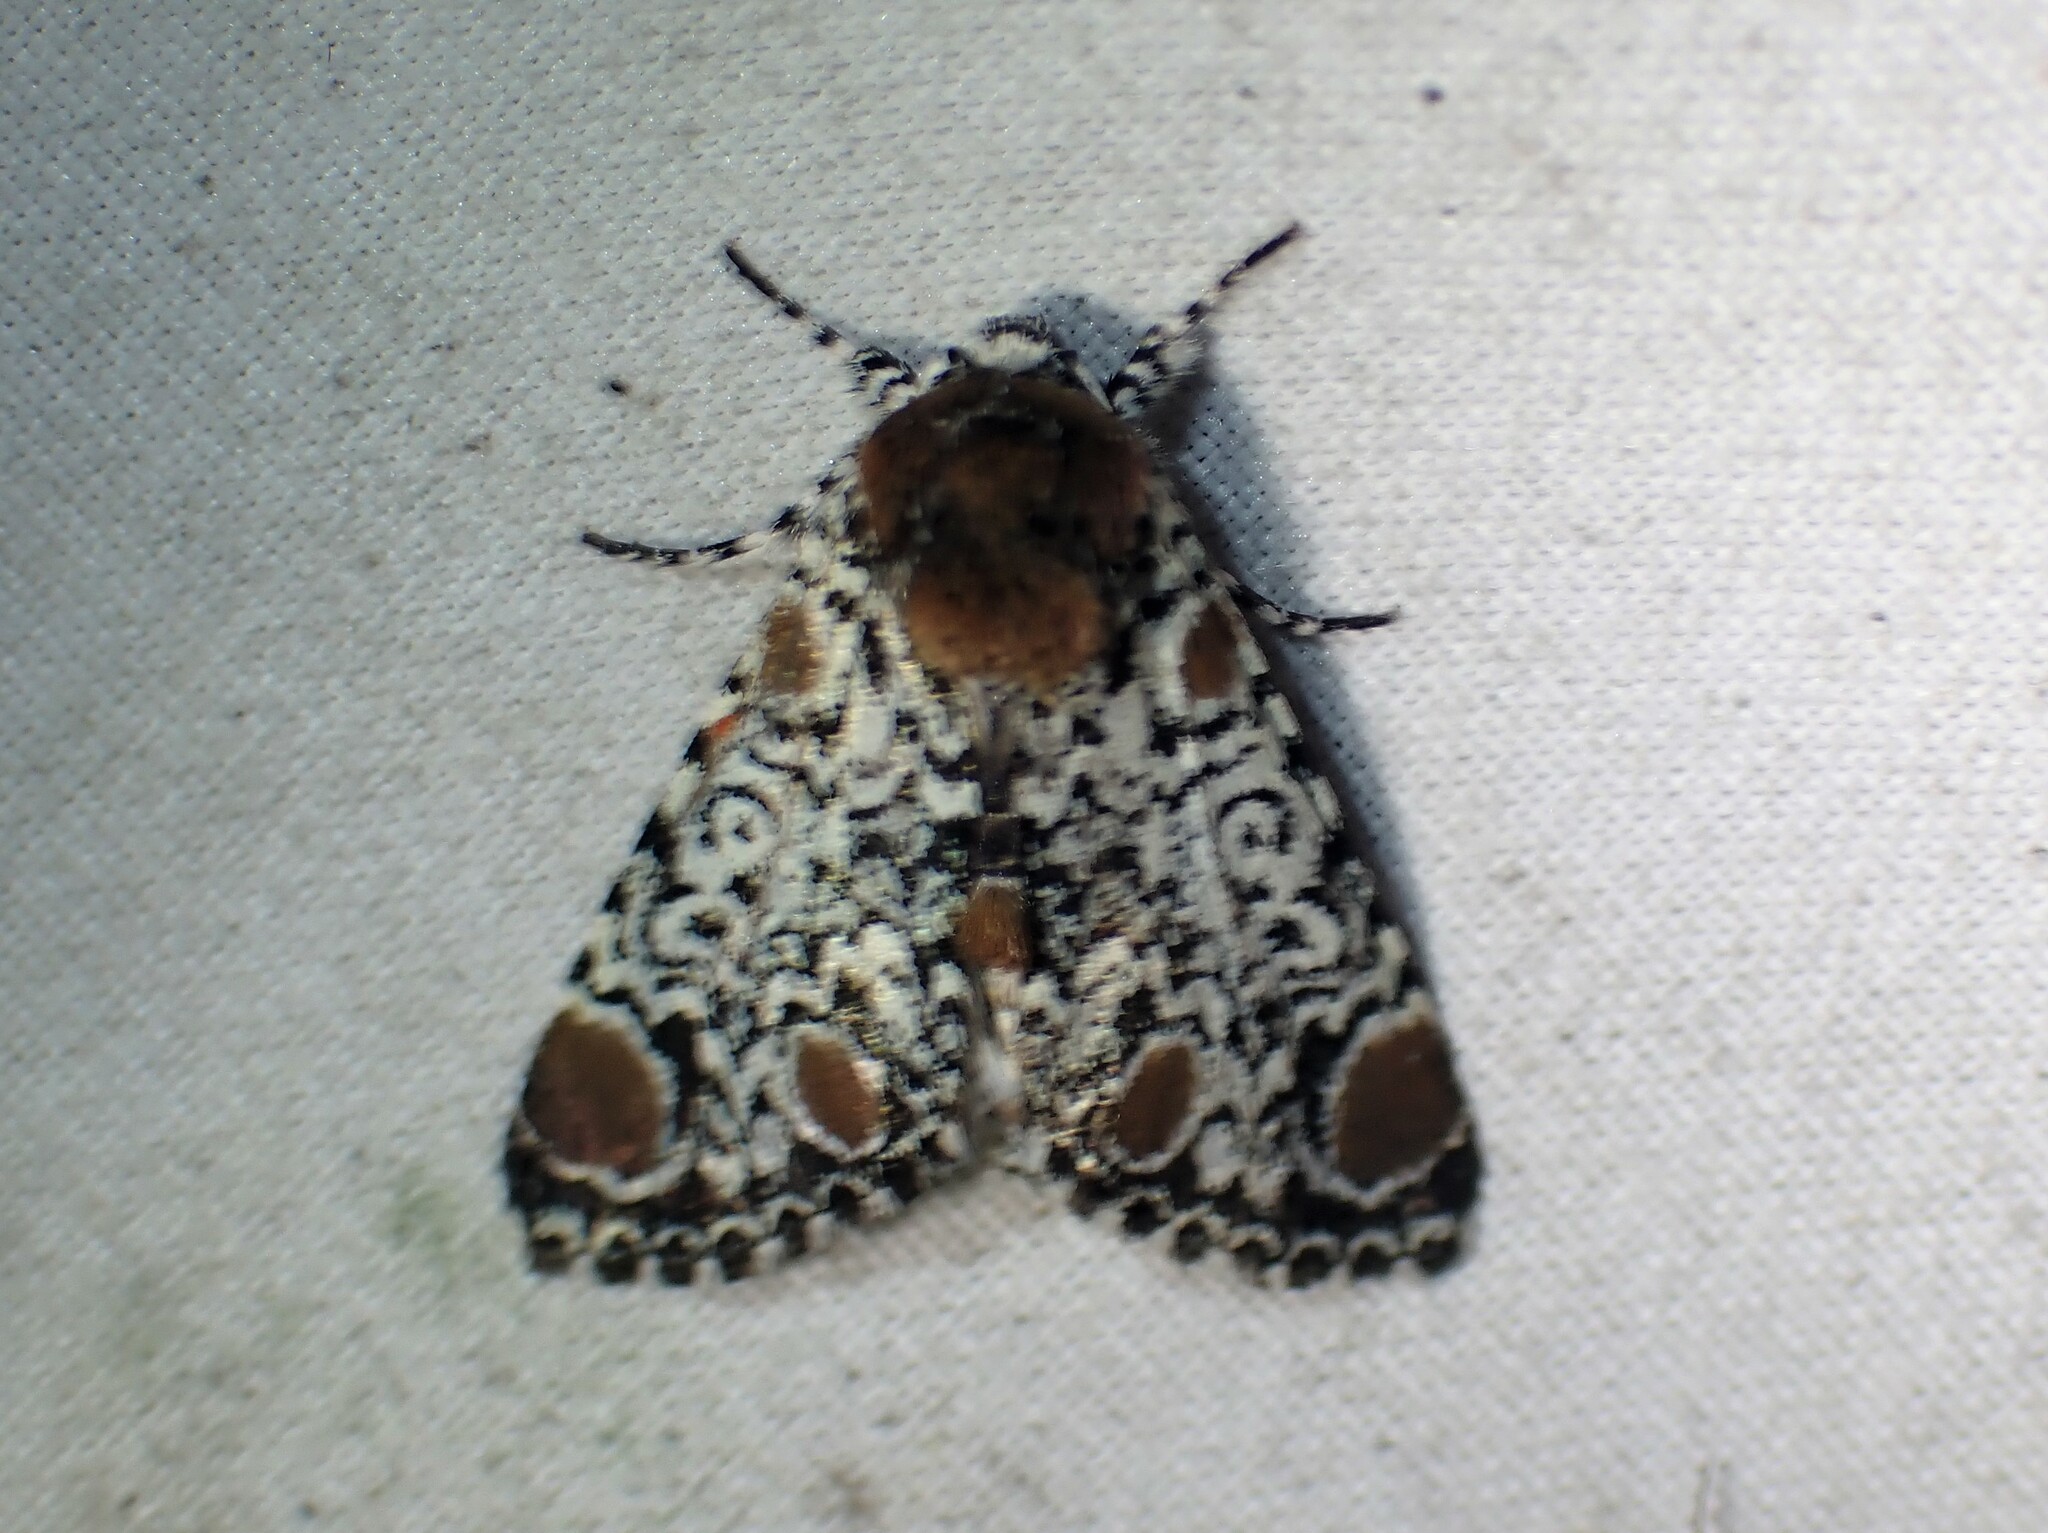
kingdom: Animalia
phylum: Arthropoda
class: Insecta
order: Lepidoptera
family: Noctuidae
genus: Harrisimemna
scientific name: Harrisimemna trisignata
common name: Harris threespot
